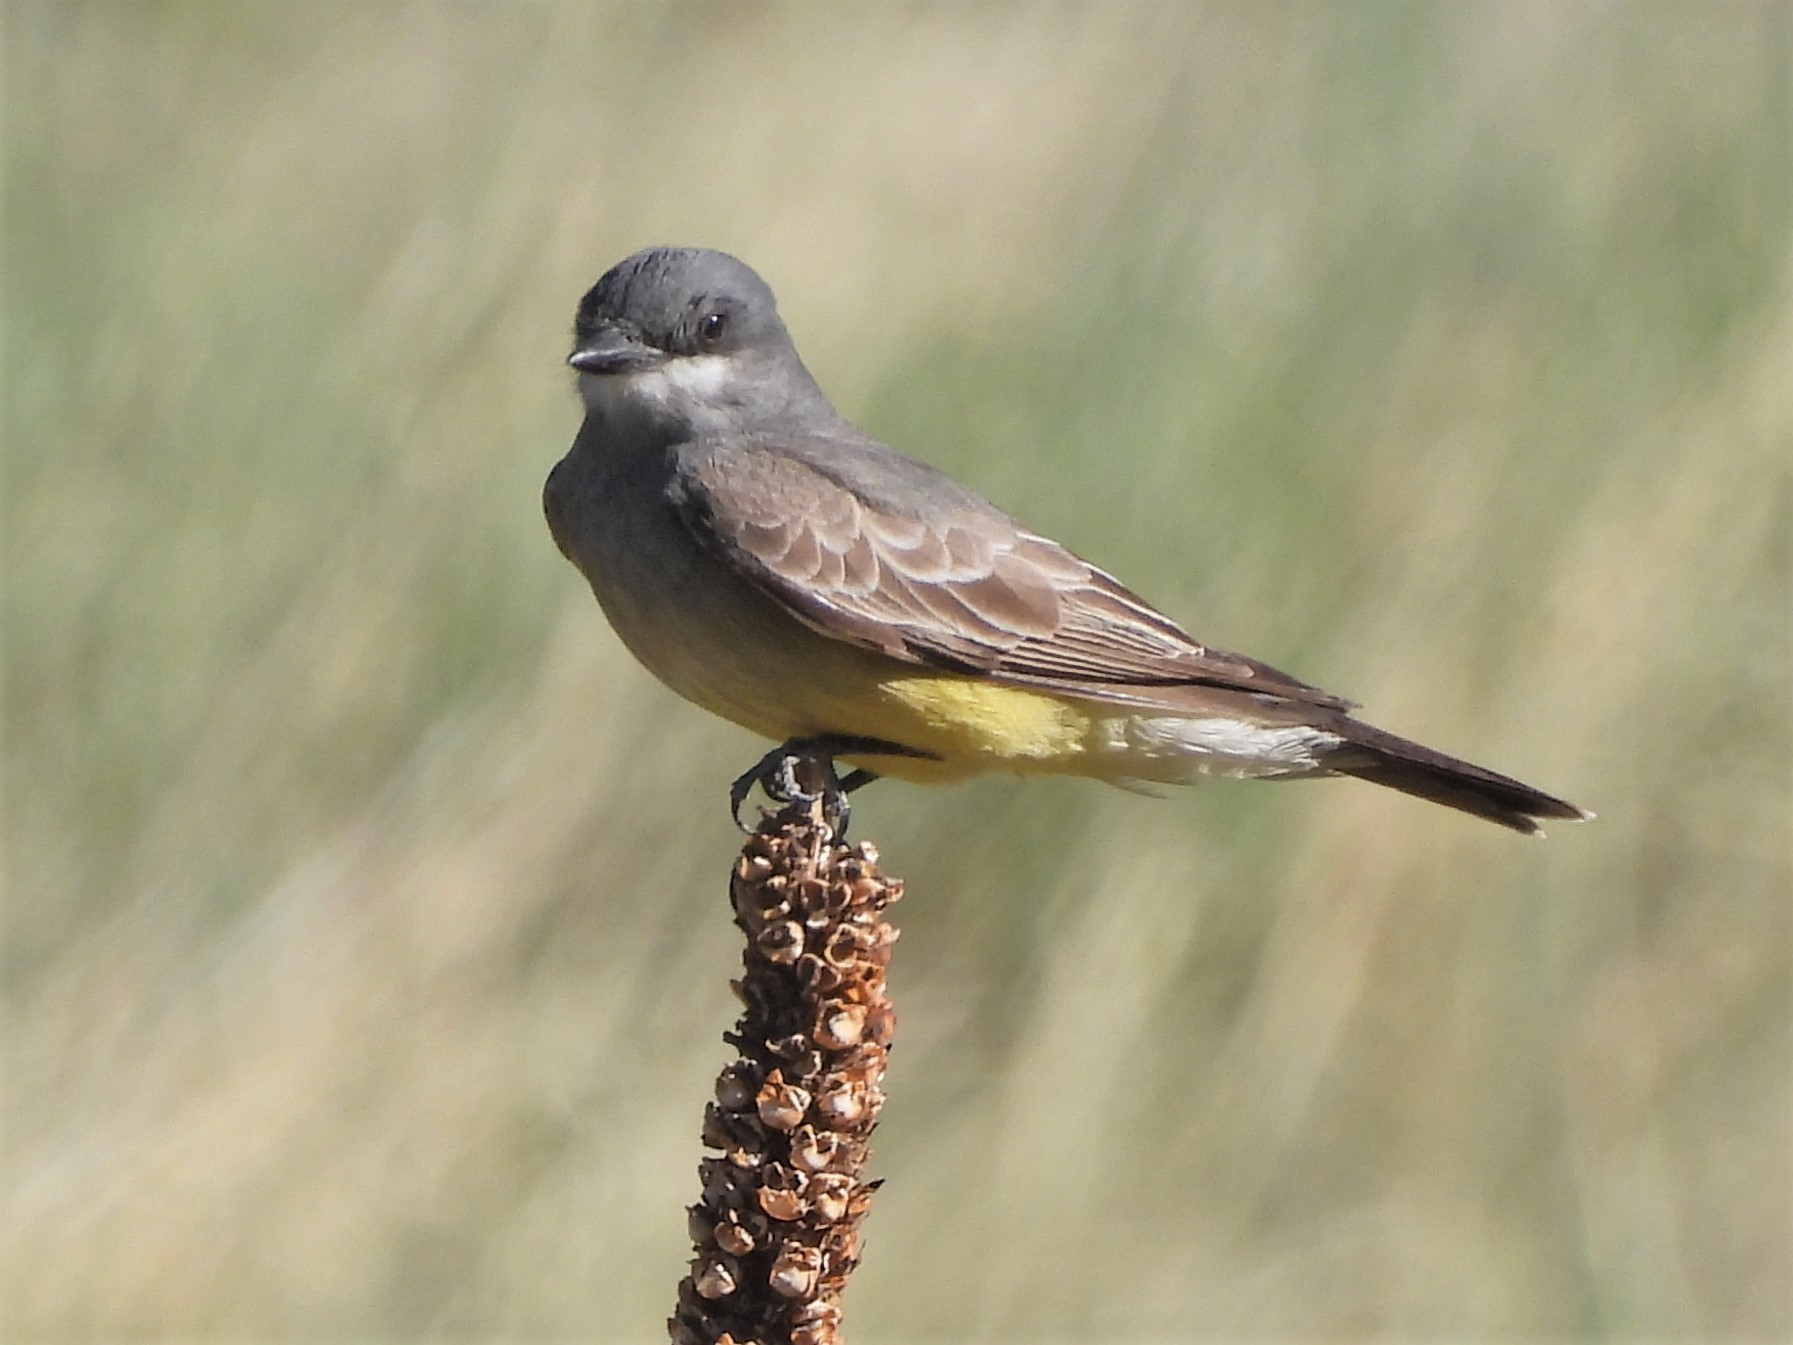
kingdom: Animalia
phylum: Chordata
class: Aves
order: Passeriformes
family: Tyrannidae
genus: Tyrannus
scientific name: Tyrannus vociferans
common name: Cassin's kingbird
